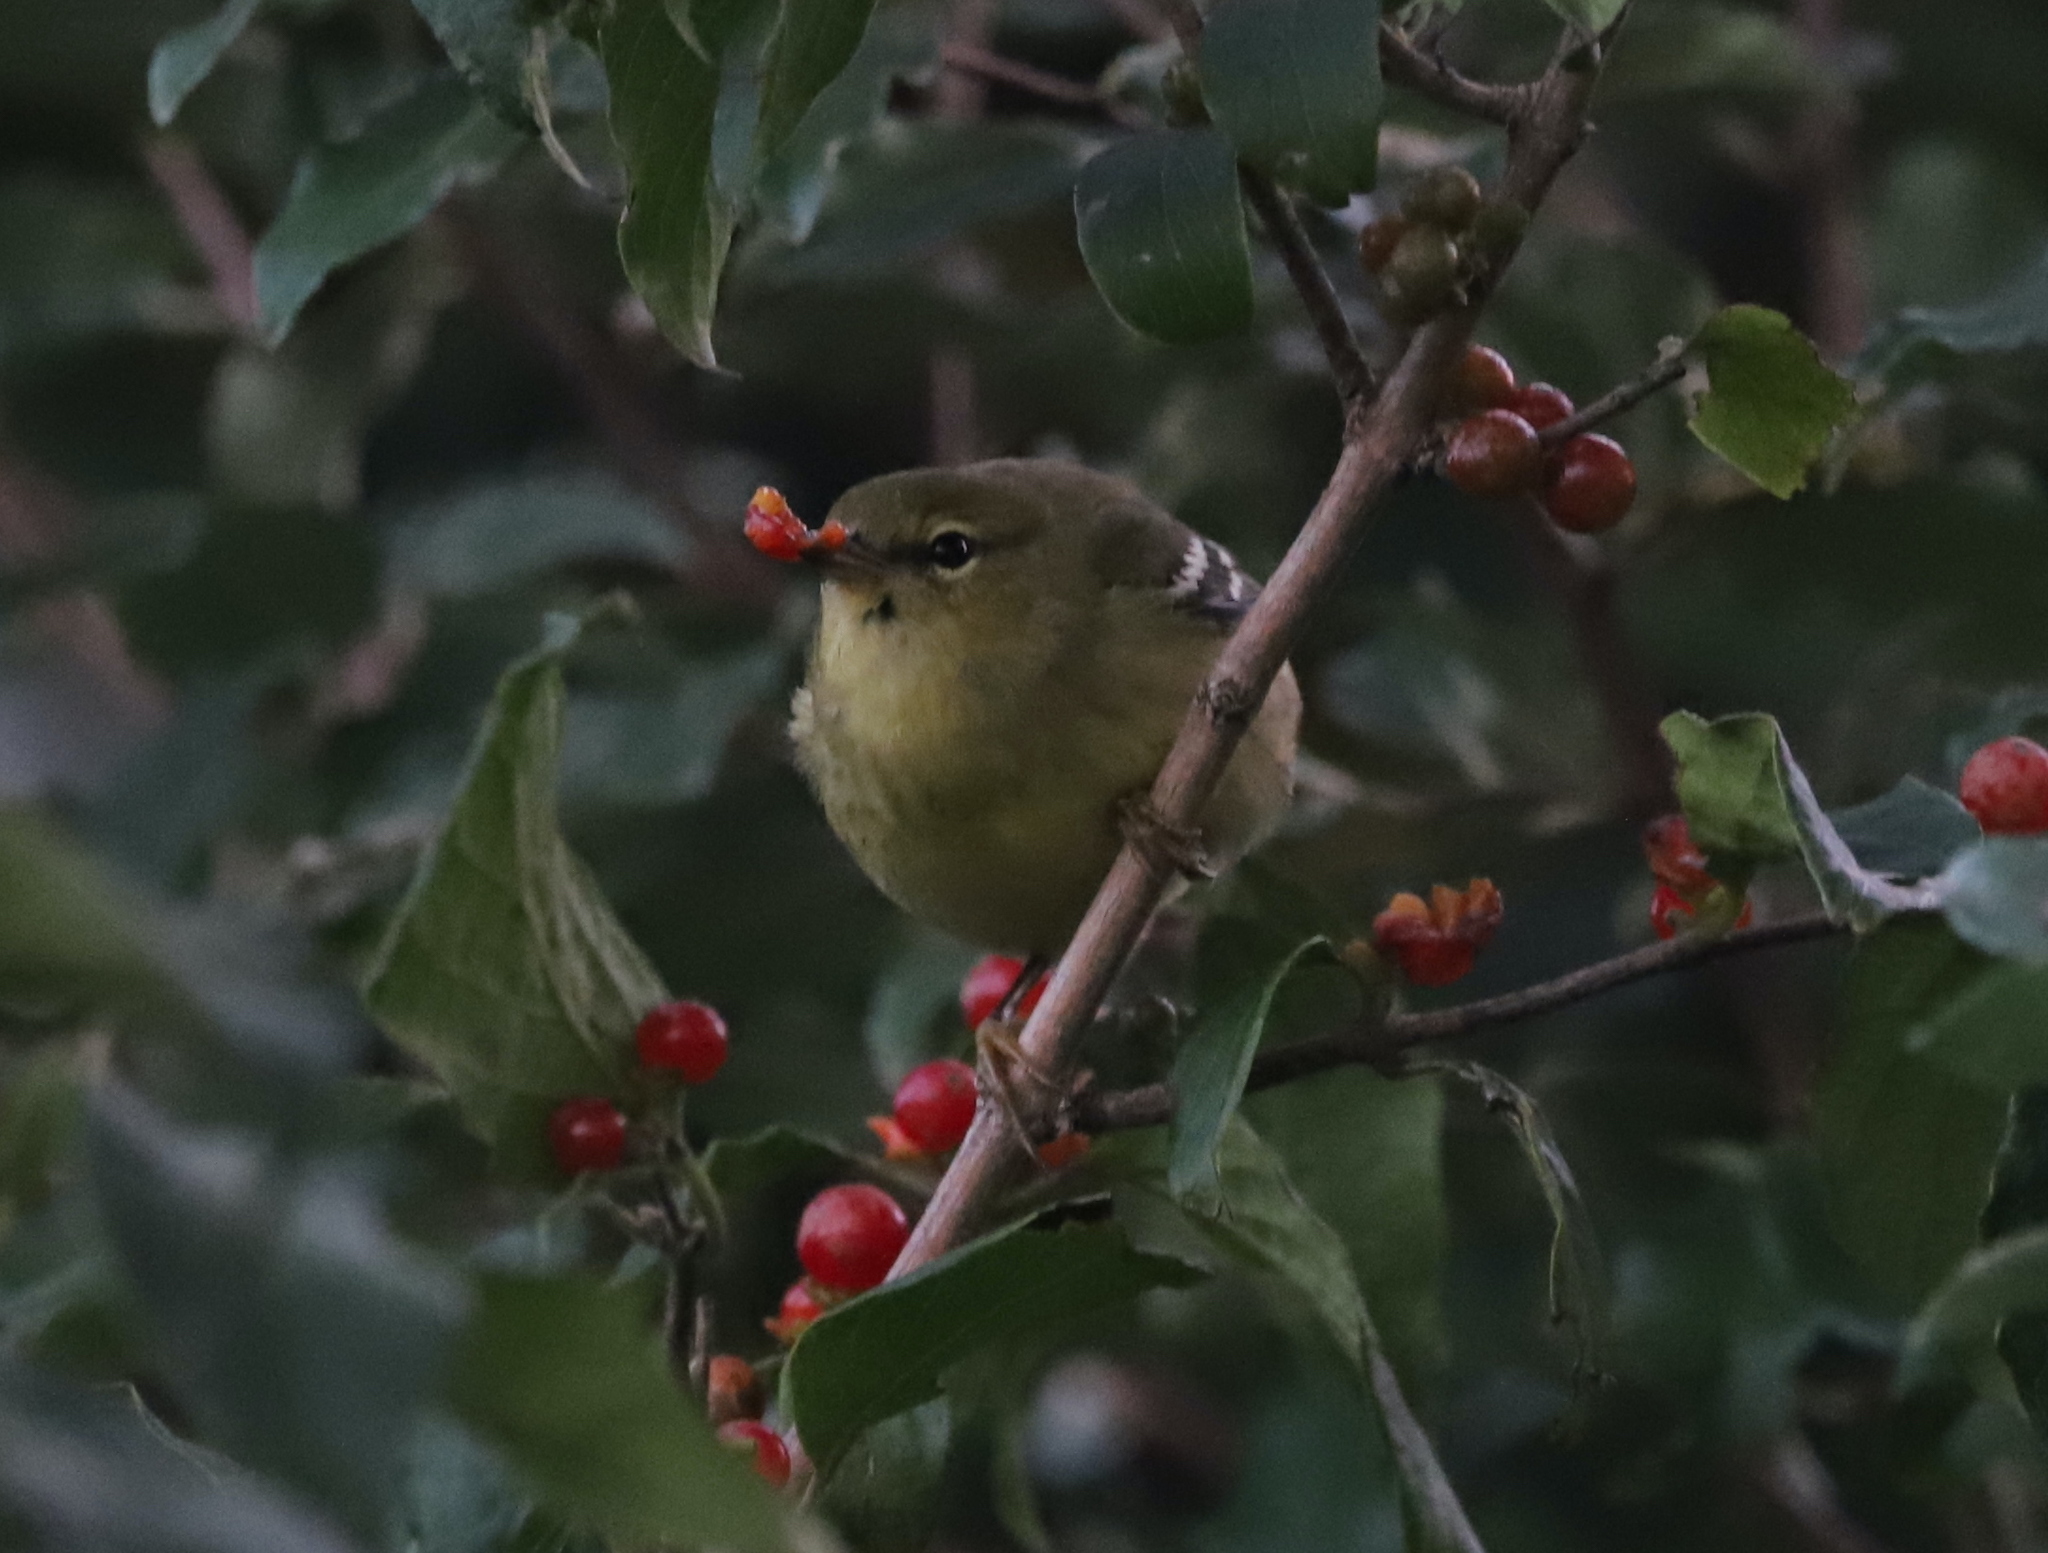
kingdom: Animalia
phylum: Chordata
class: Aves
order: Passeriformes
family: Parulidae
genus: Setophaga
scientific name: Setophaga striata
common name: Blackpoll warbler
